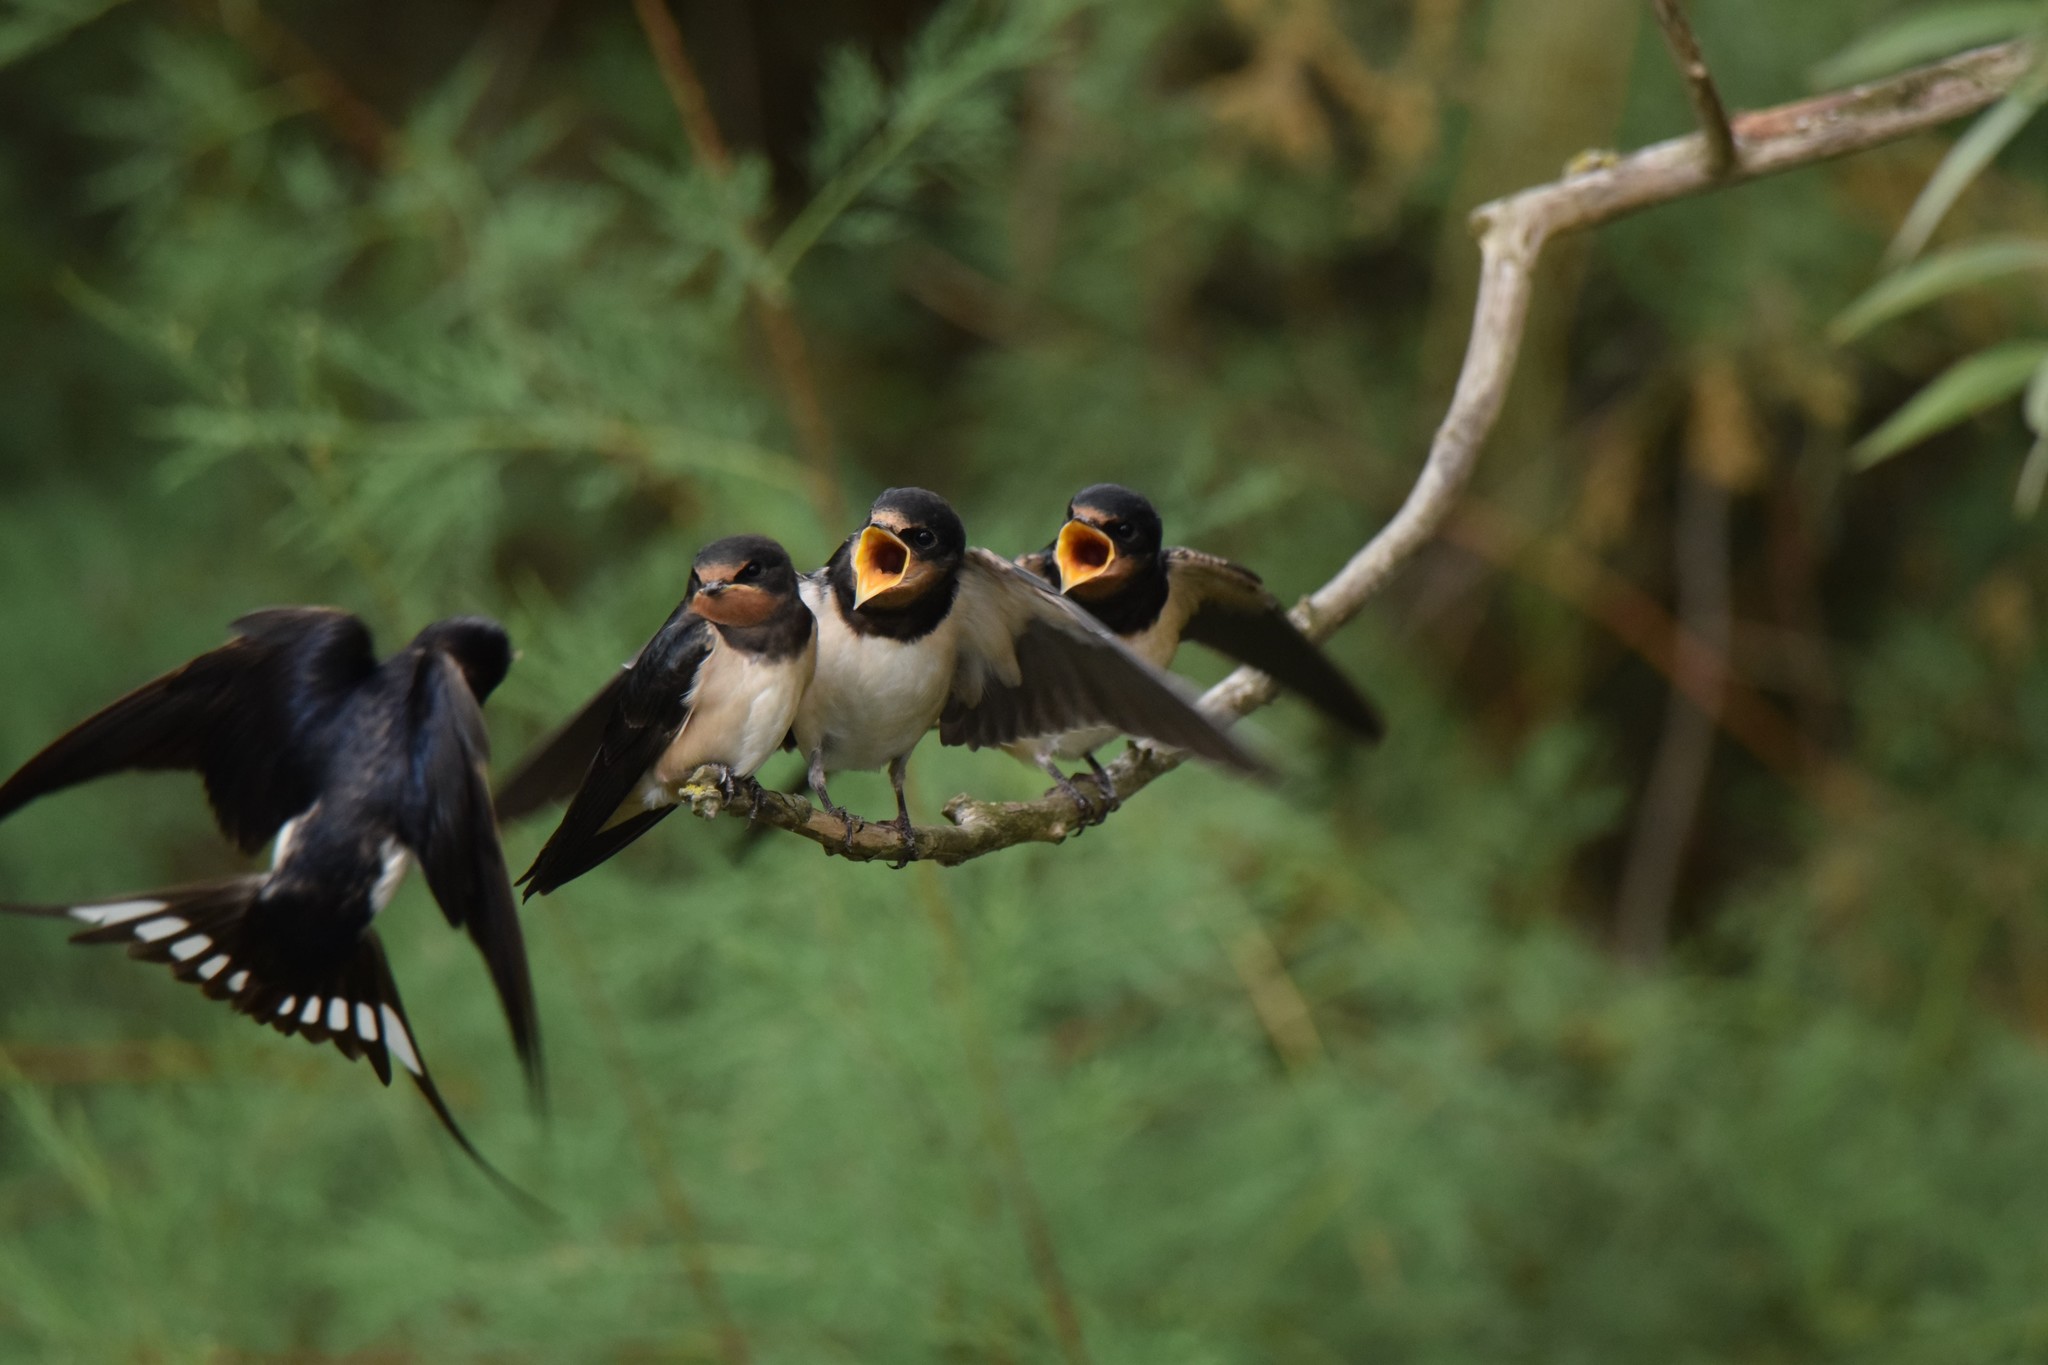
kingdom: Animalia
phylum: Chordata
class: Aves
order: Passeriformes
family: Hirundinidae
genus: Hirundo
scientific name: Hirundo rustica
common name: Barn swallow
